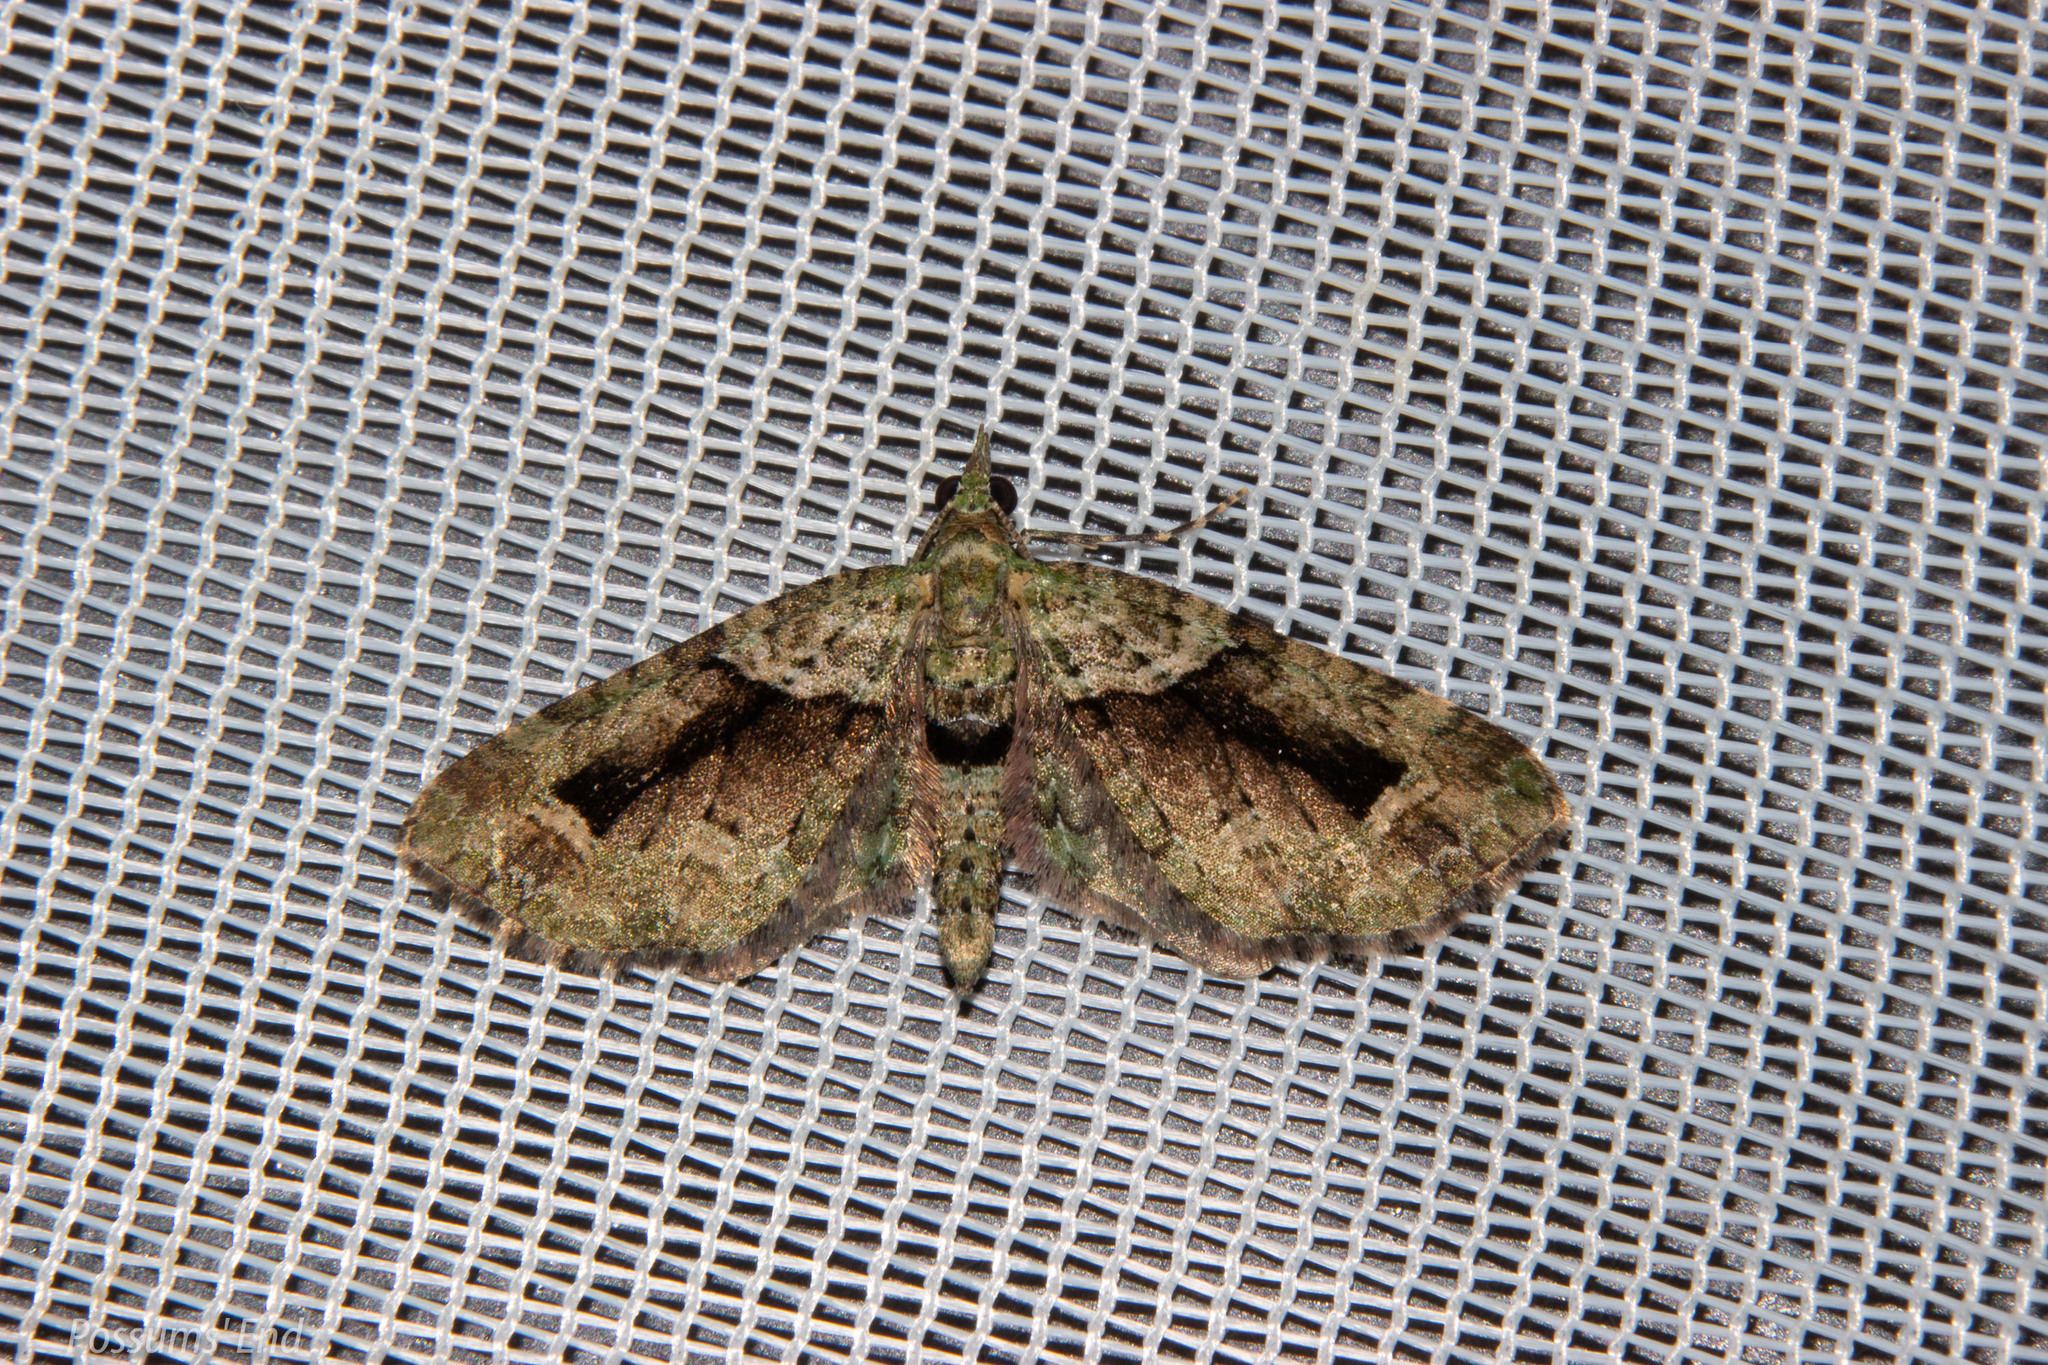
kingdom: Animalia
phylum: Arthropoda
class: Insecta
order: Lepidoptera
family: Geometridae
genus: Pasiphila
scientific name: Pasiphila suffusa
